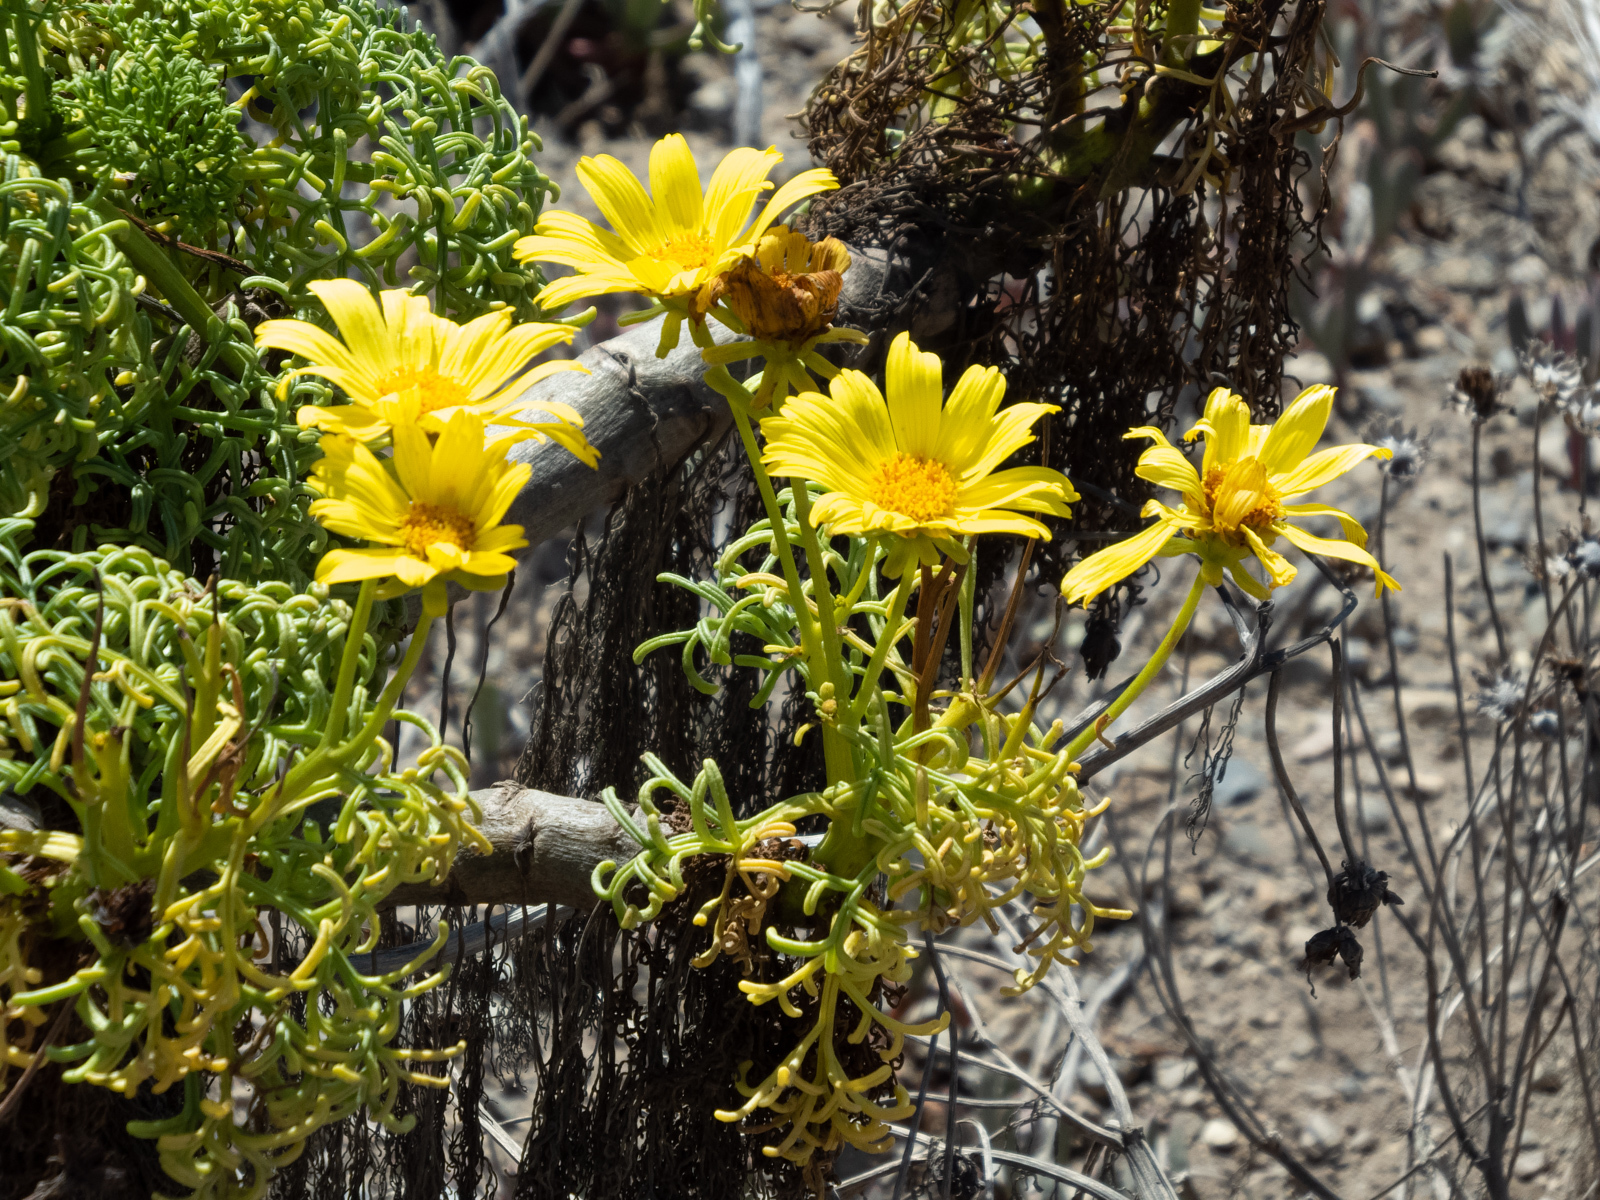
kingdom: Plantae
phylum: Tracheophyta
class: Magnoliopsida
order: Asterales
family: Asteraceae
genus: Coreopsis
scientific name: Coreopsis gigantea
